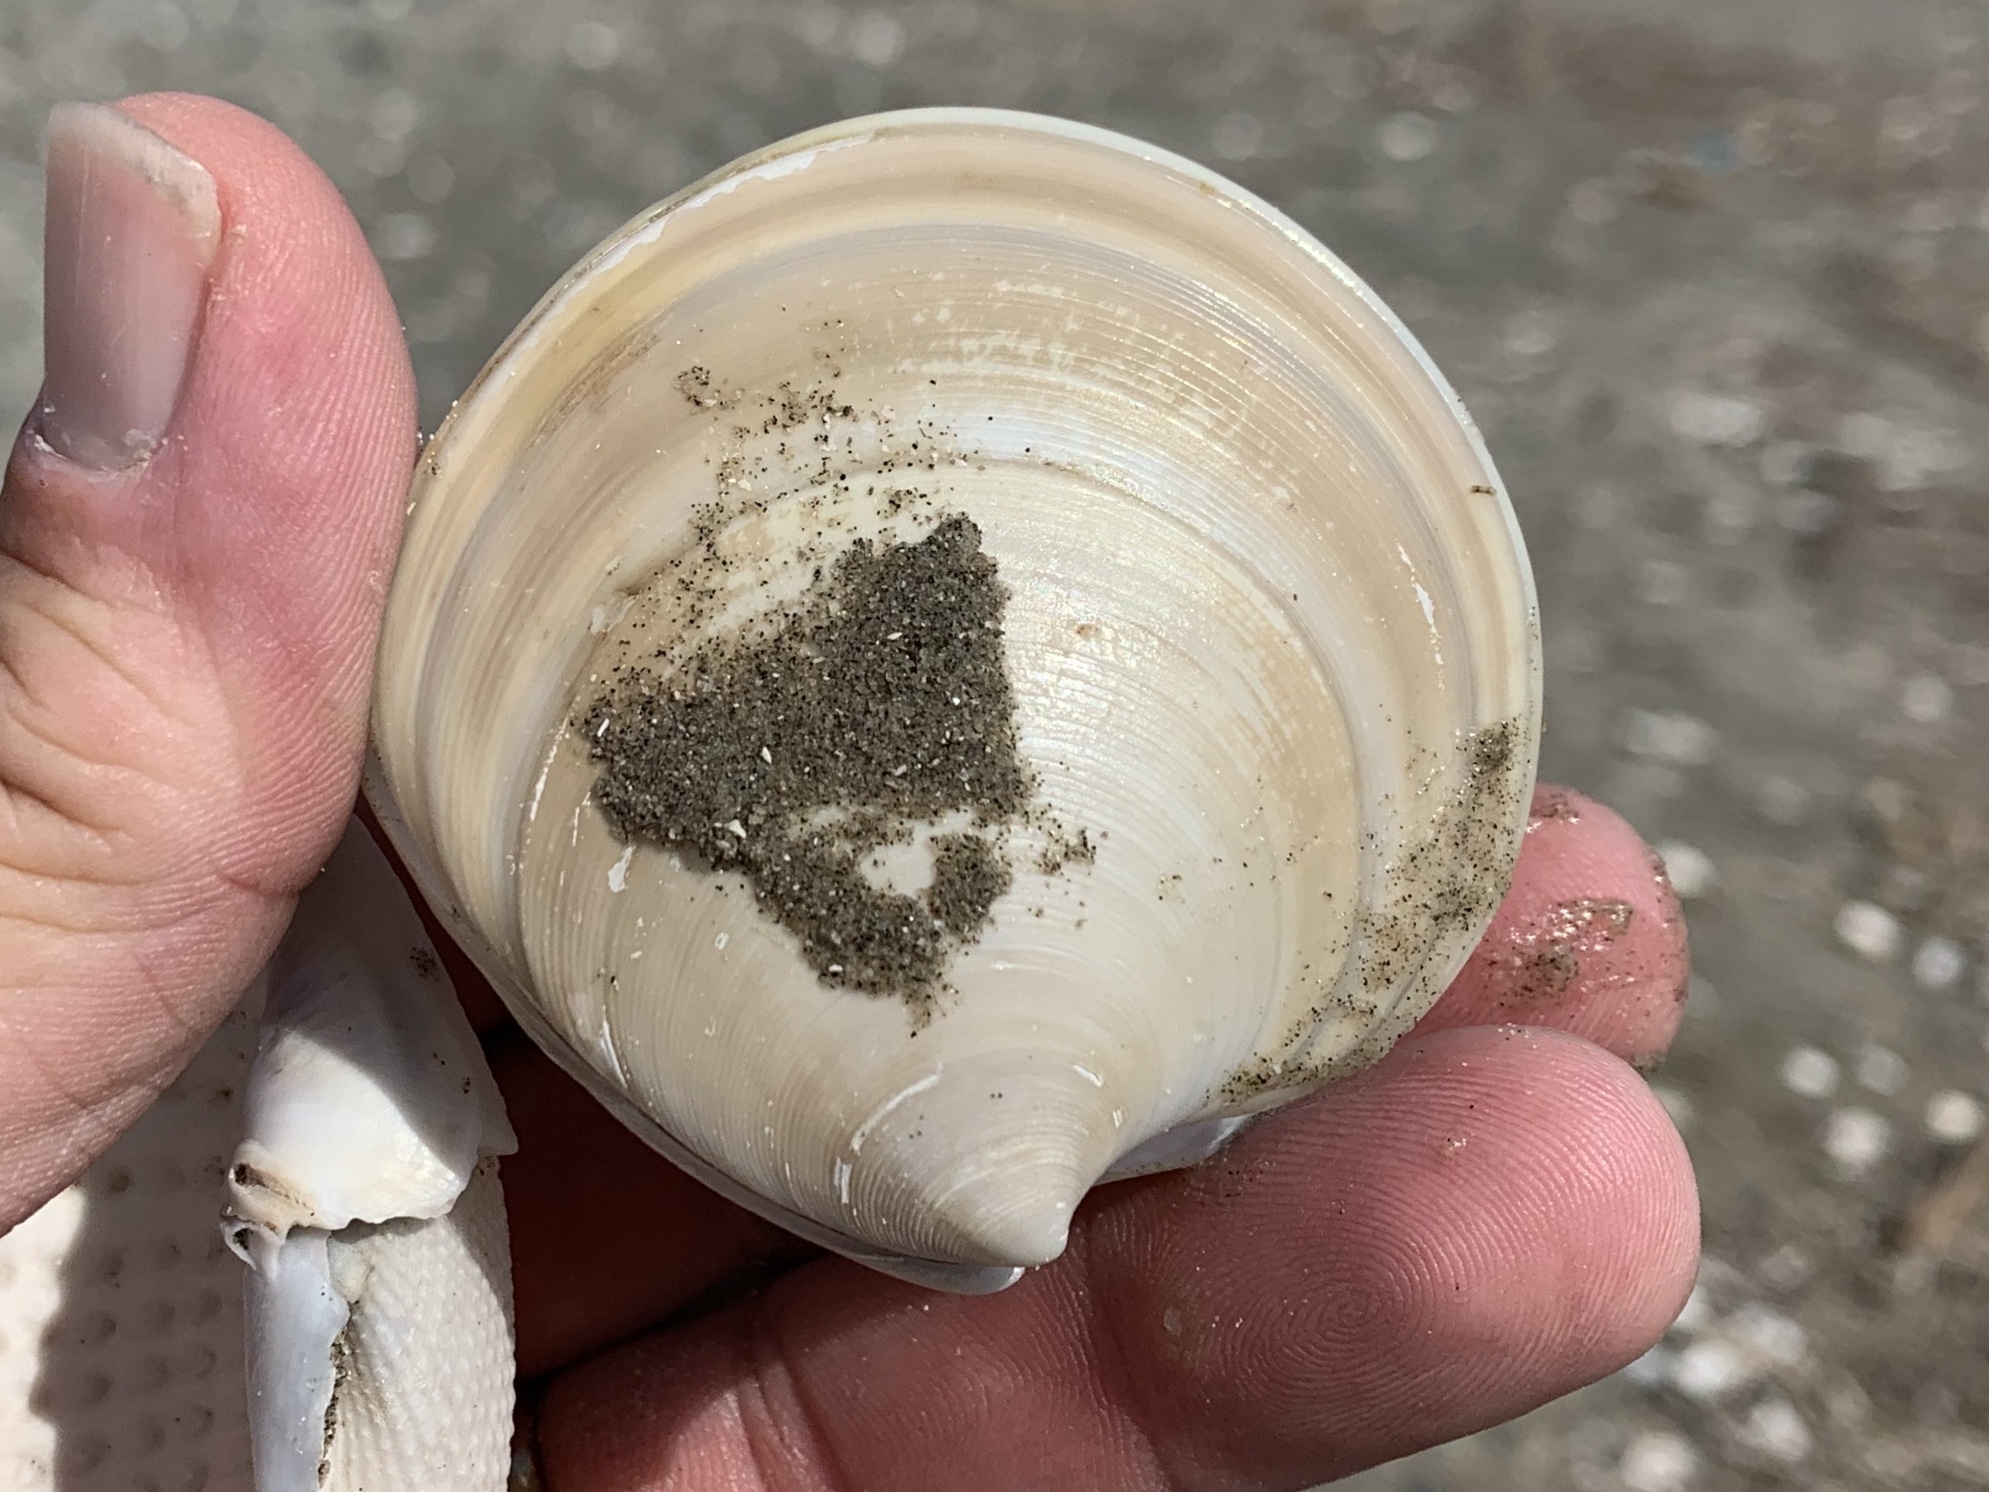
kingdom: Animalia
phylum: Mollusca
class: Bivalvia
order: Venerida
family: Veneridae
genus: Dosinia
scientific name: Dosinia discus
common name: Disk dosinia
